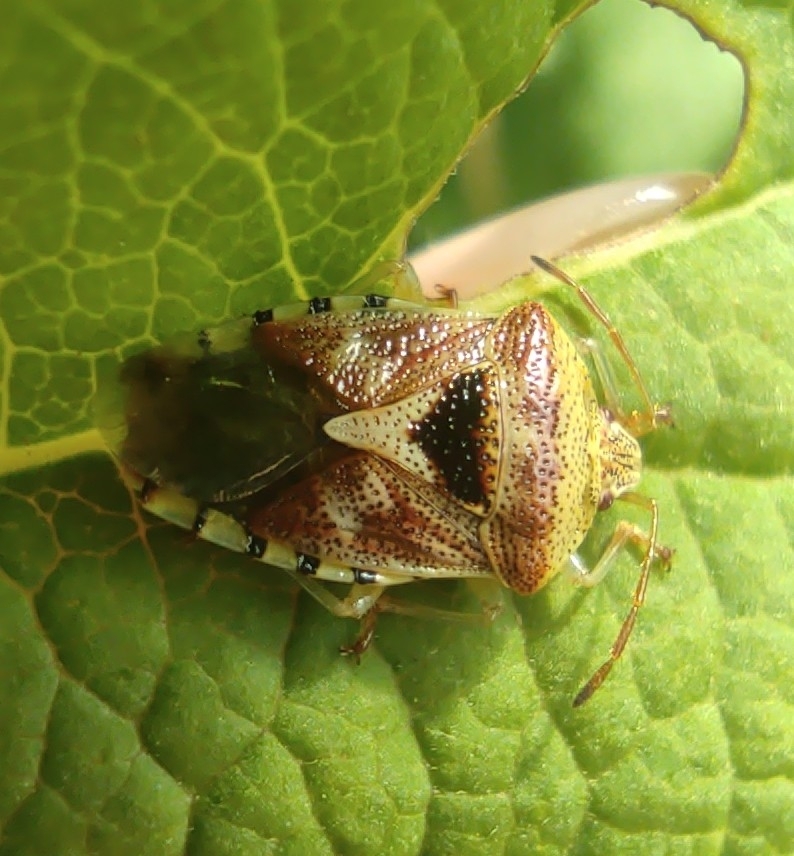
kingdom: Animalia
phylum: Arthropoda
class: Insecta
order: Hemiptera
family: Acanthosomatidae
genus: Elasmucha
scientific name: Elasmucha grisea
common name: Parent bug
